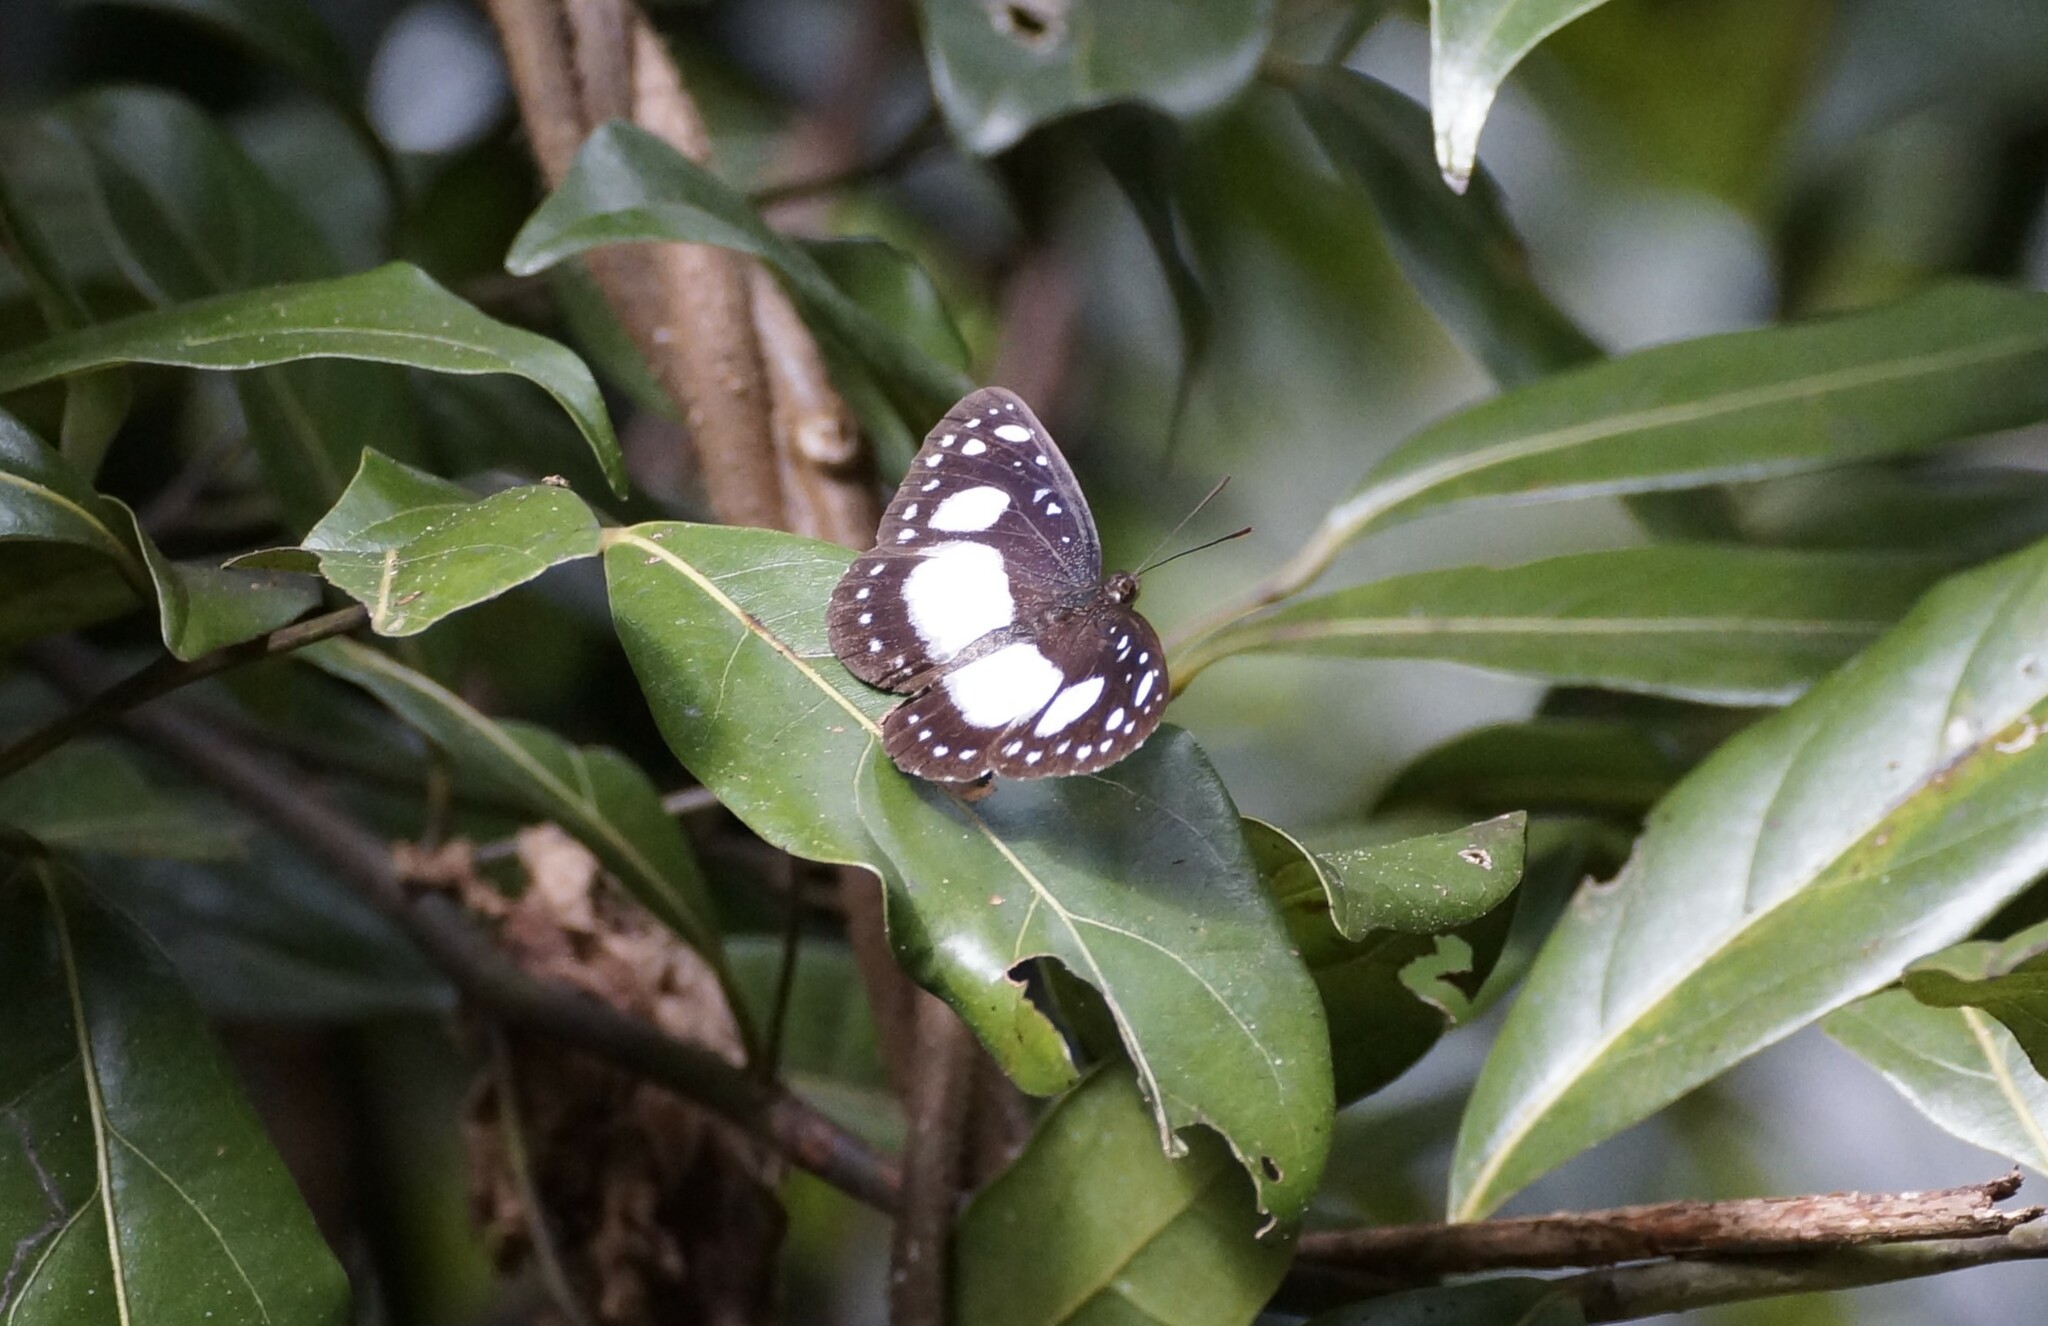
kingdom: Animalia
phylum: Arthropoda
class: Insecta
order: Lepidoptera
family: Nymphalidae
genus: Pantoporia
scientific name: Pantoporia venilia
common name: Cape york aeroplane
